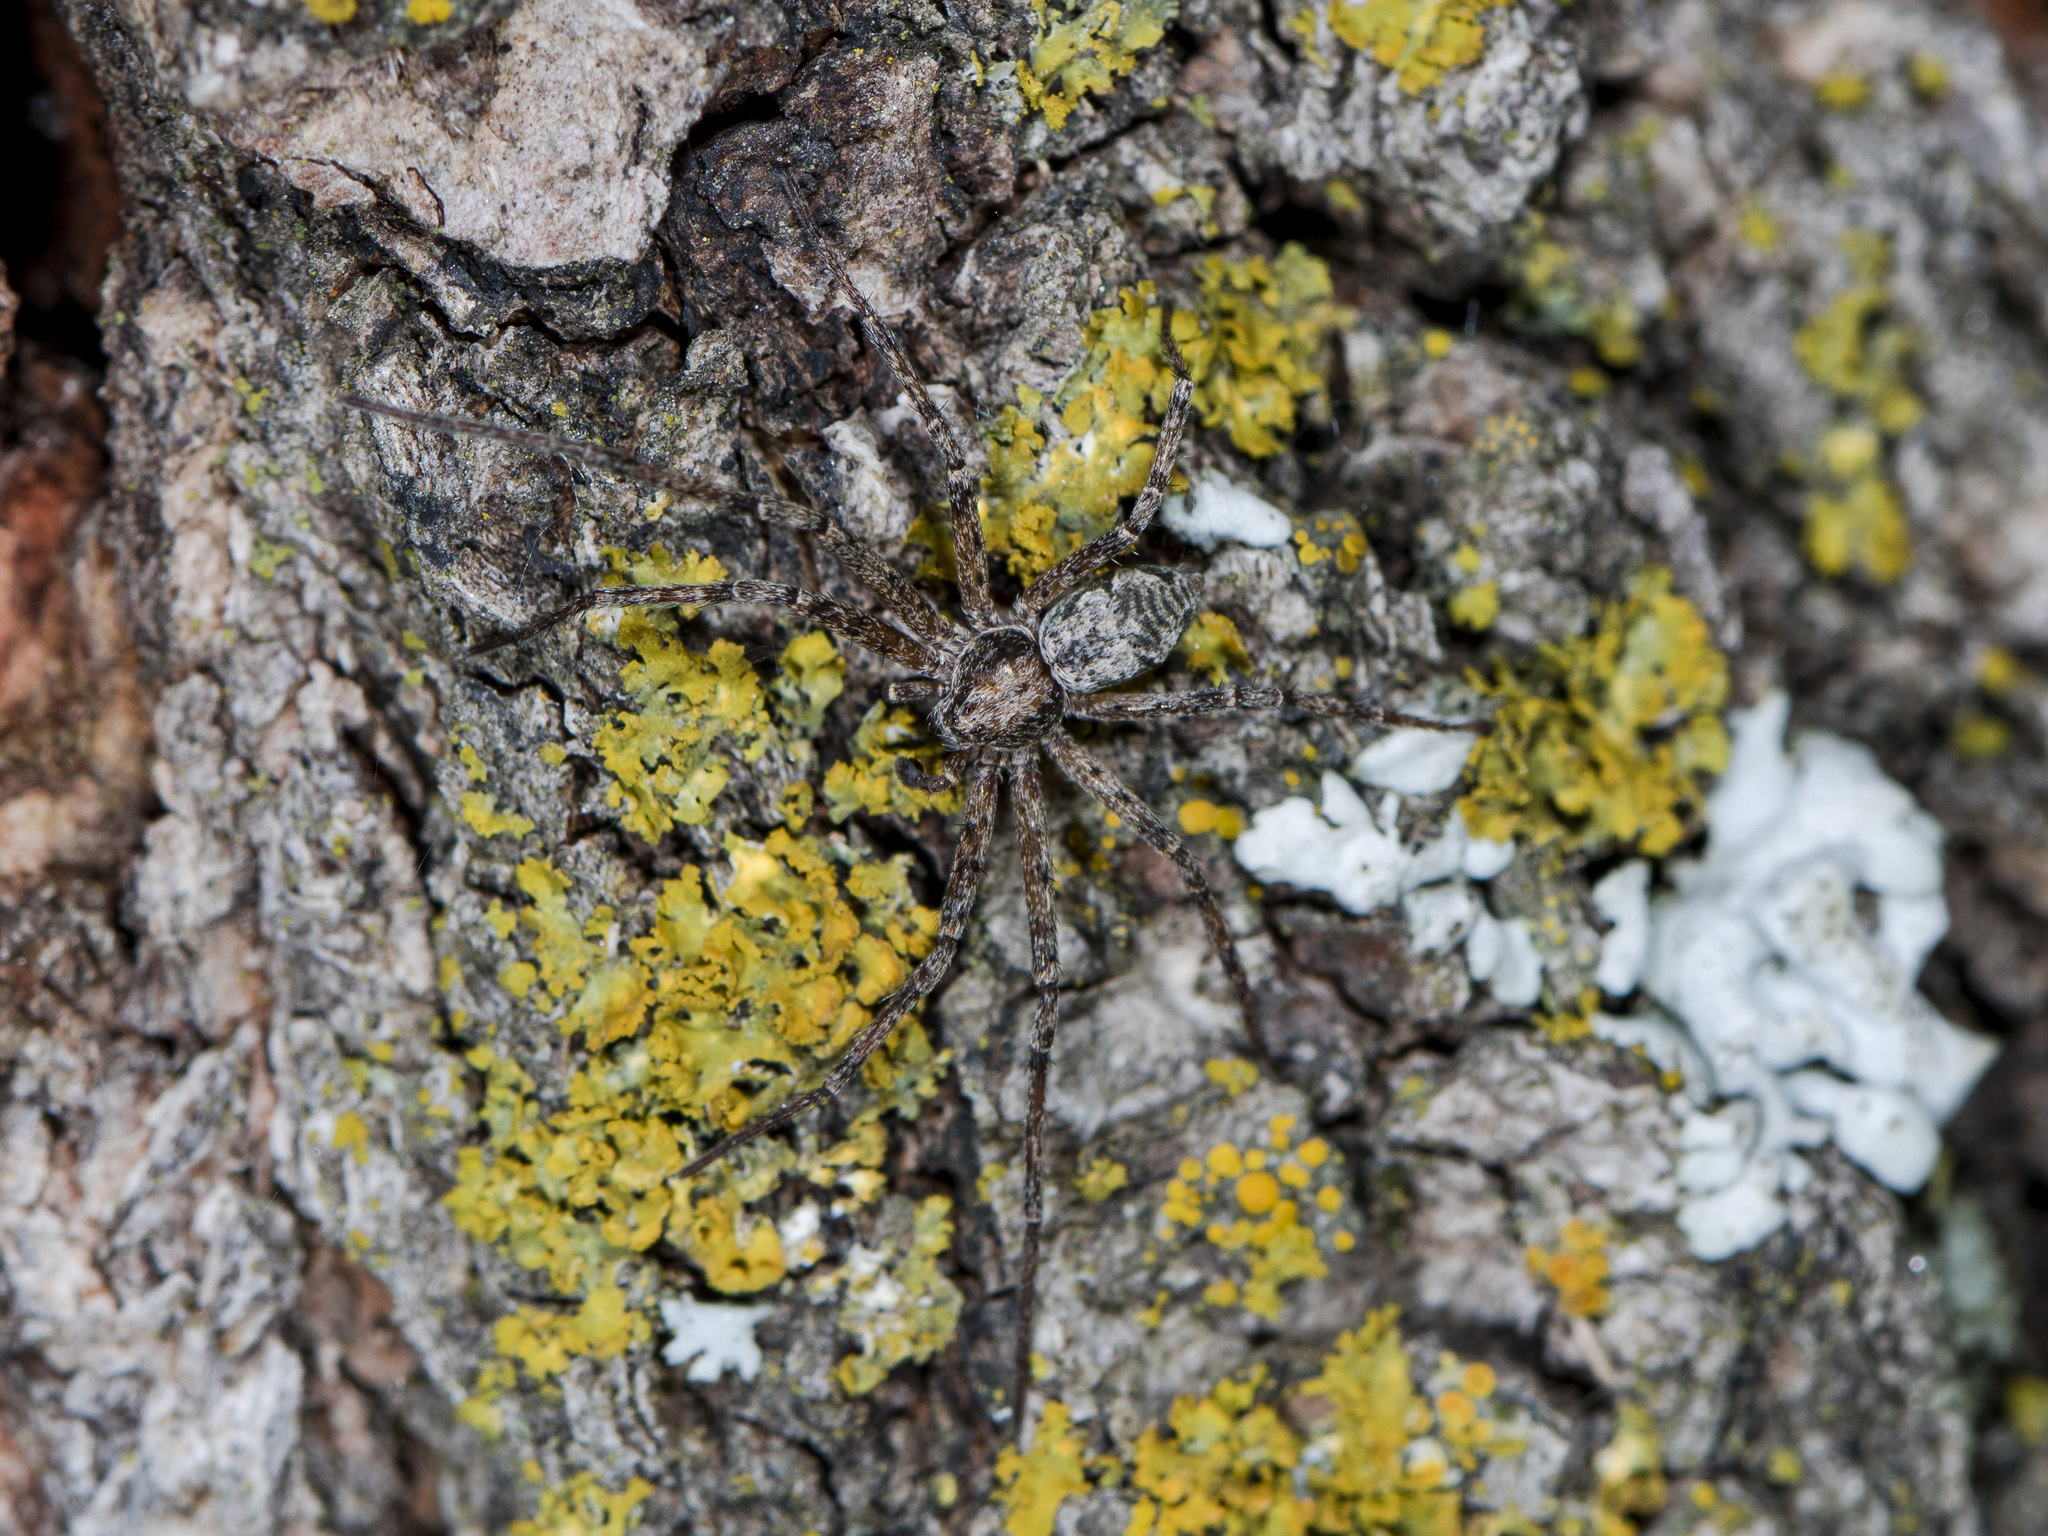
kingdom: Animalia
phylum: Arthropoda
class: Arachnida
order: Araneae
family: Philodromidae
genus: Rhysodromus
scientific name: Rhysodromus pictus
